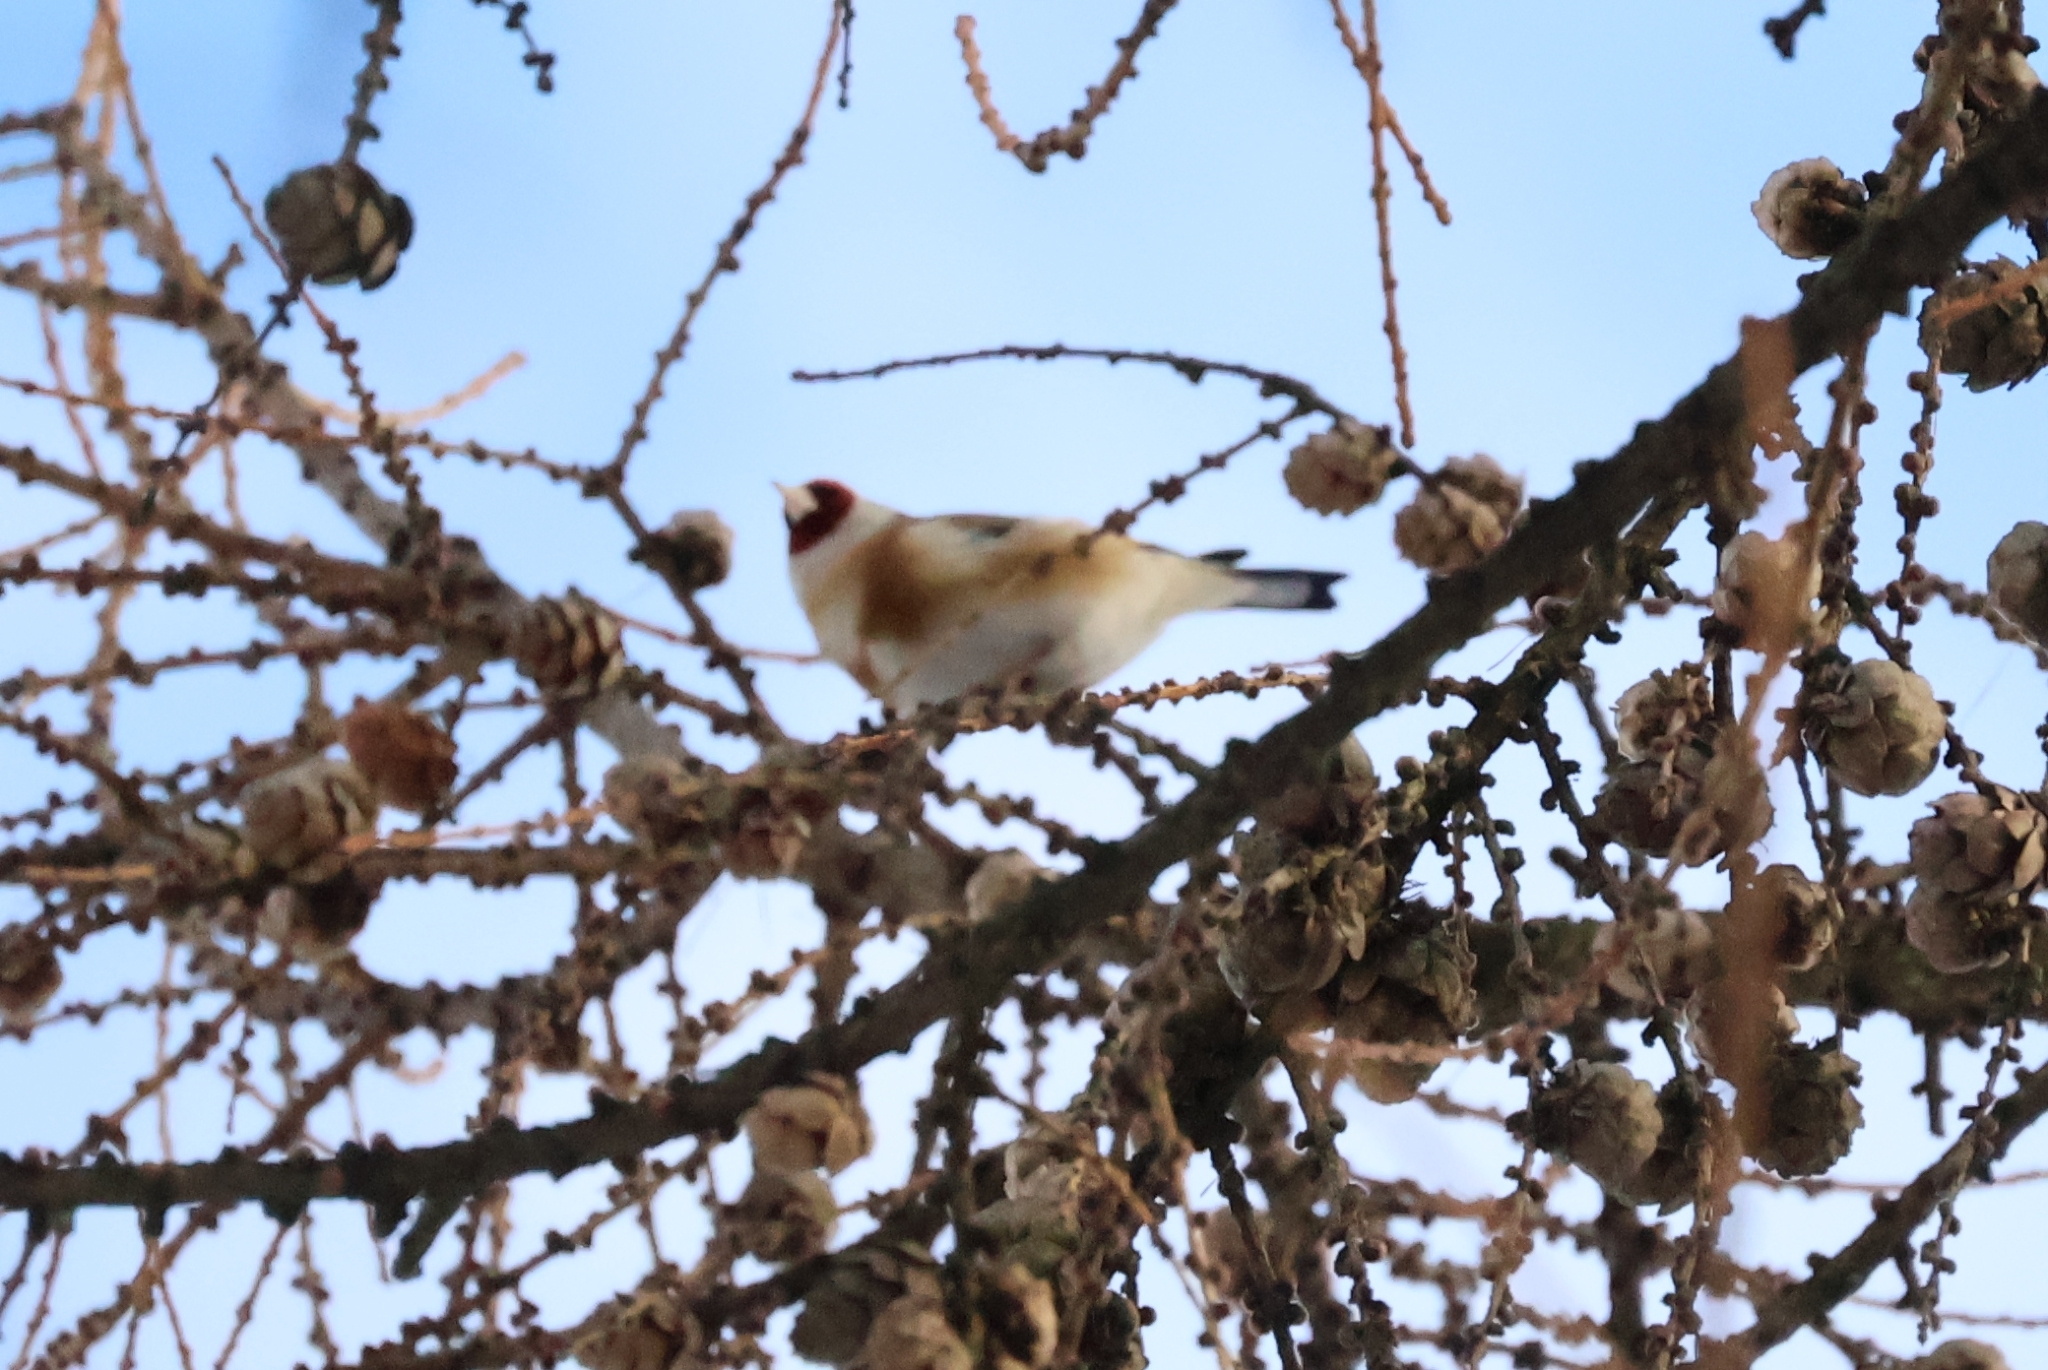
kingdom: Animalia
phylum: Chordata
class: Aves
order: Passeriformes
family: Fringillidae
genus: Carduelis
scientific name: Carduelis carduelis
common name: European goldfinch
